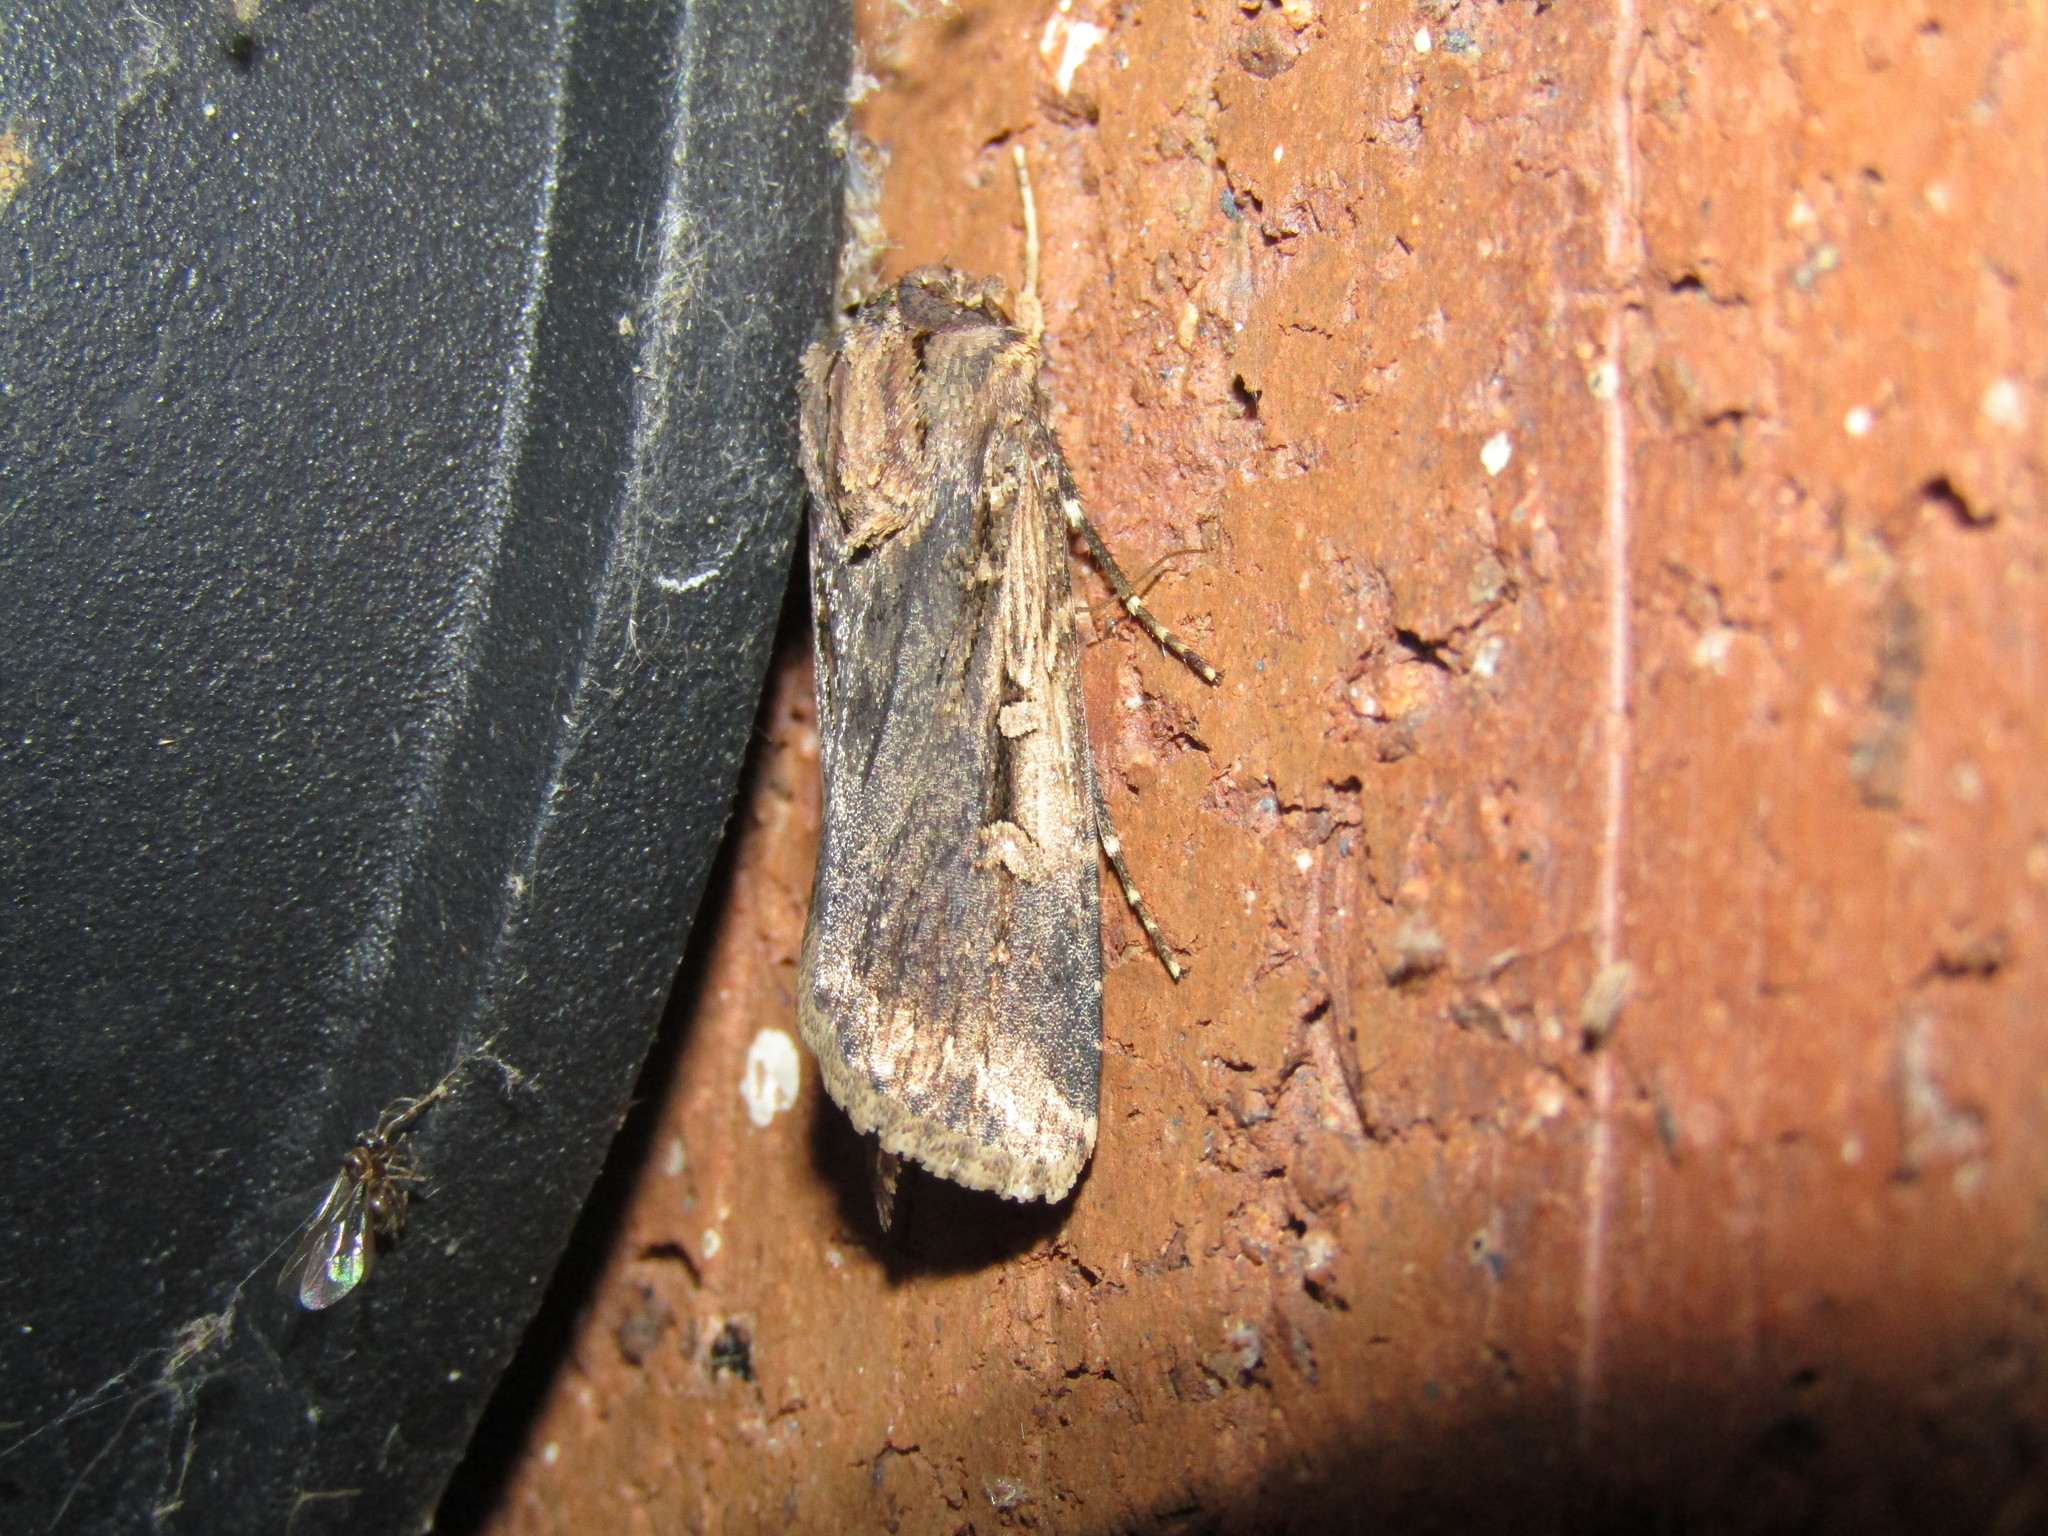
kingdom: Animalia
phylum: Arthropoda
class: Insecta
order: Lepidoptera
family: Noctuidae
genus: Feltia
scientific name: Feltia subterranea
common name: Granulate cutworm
